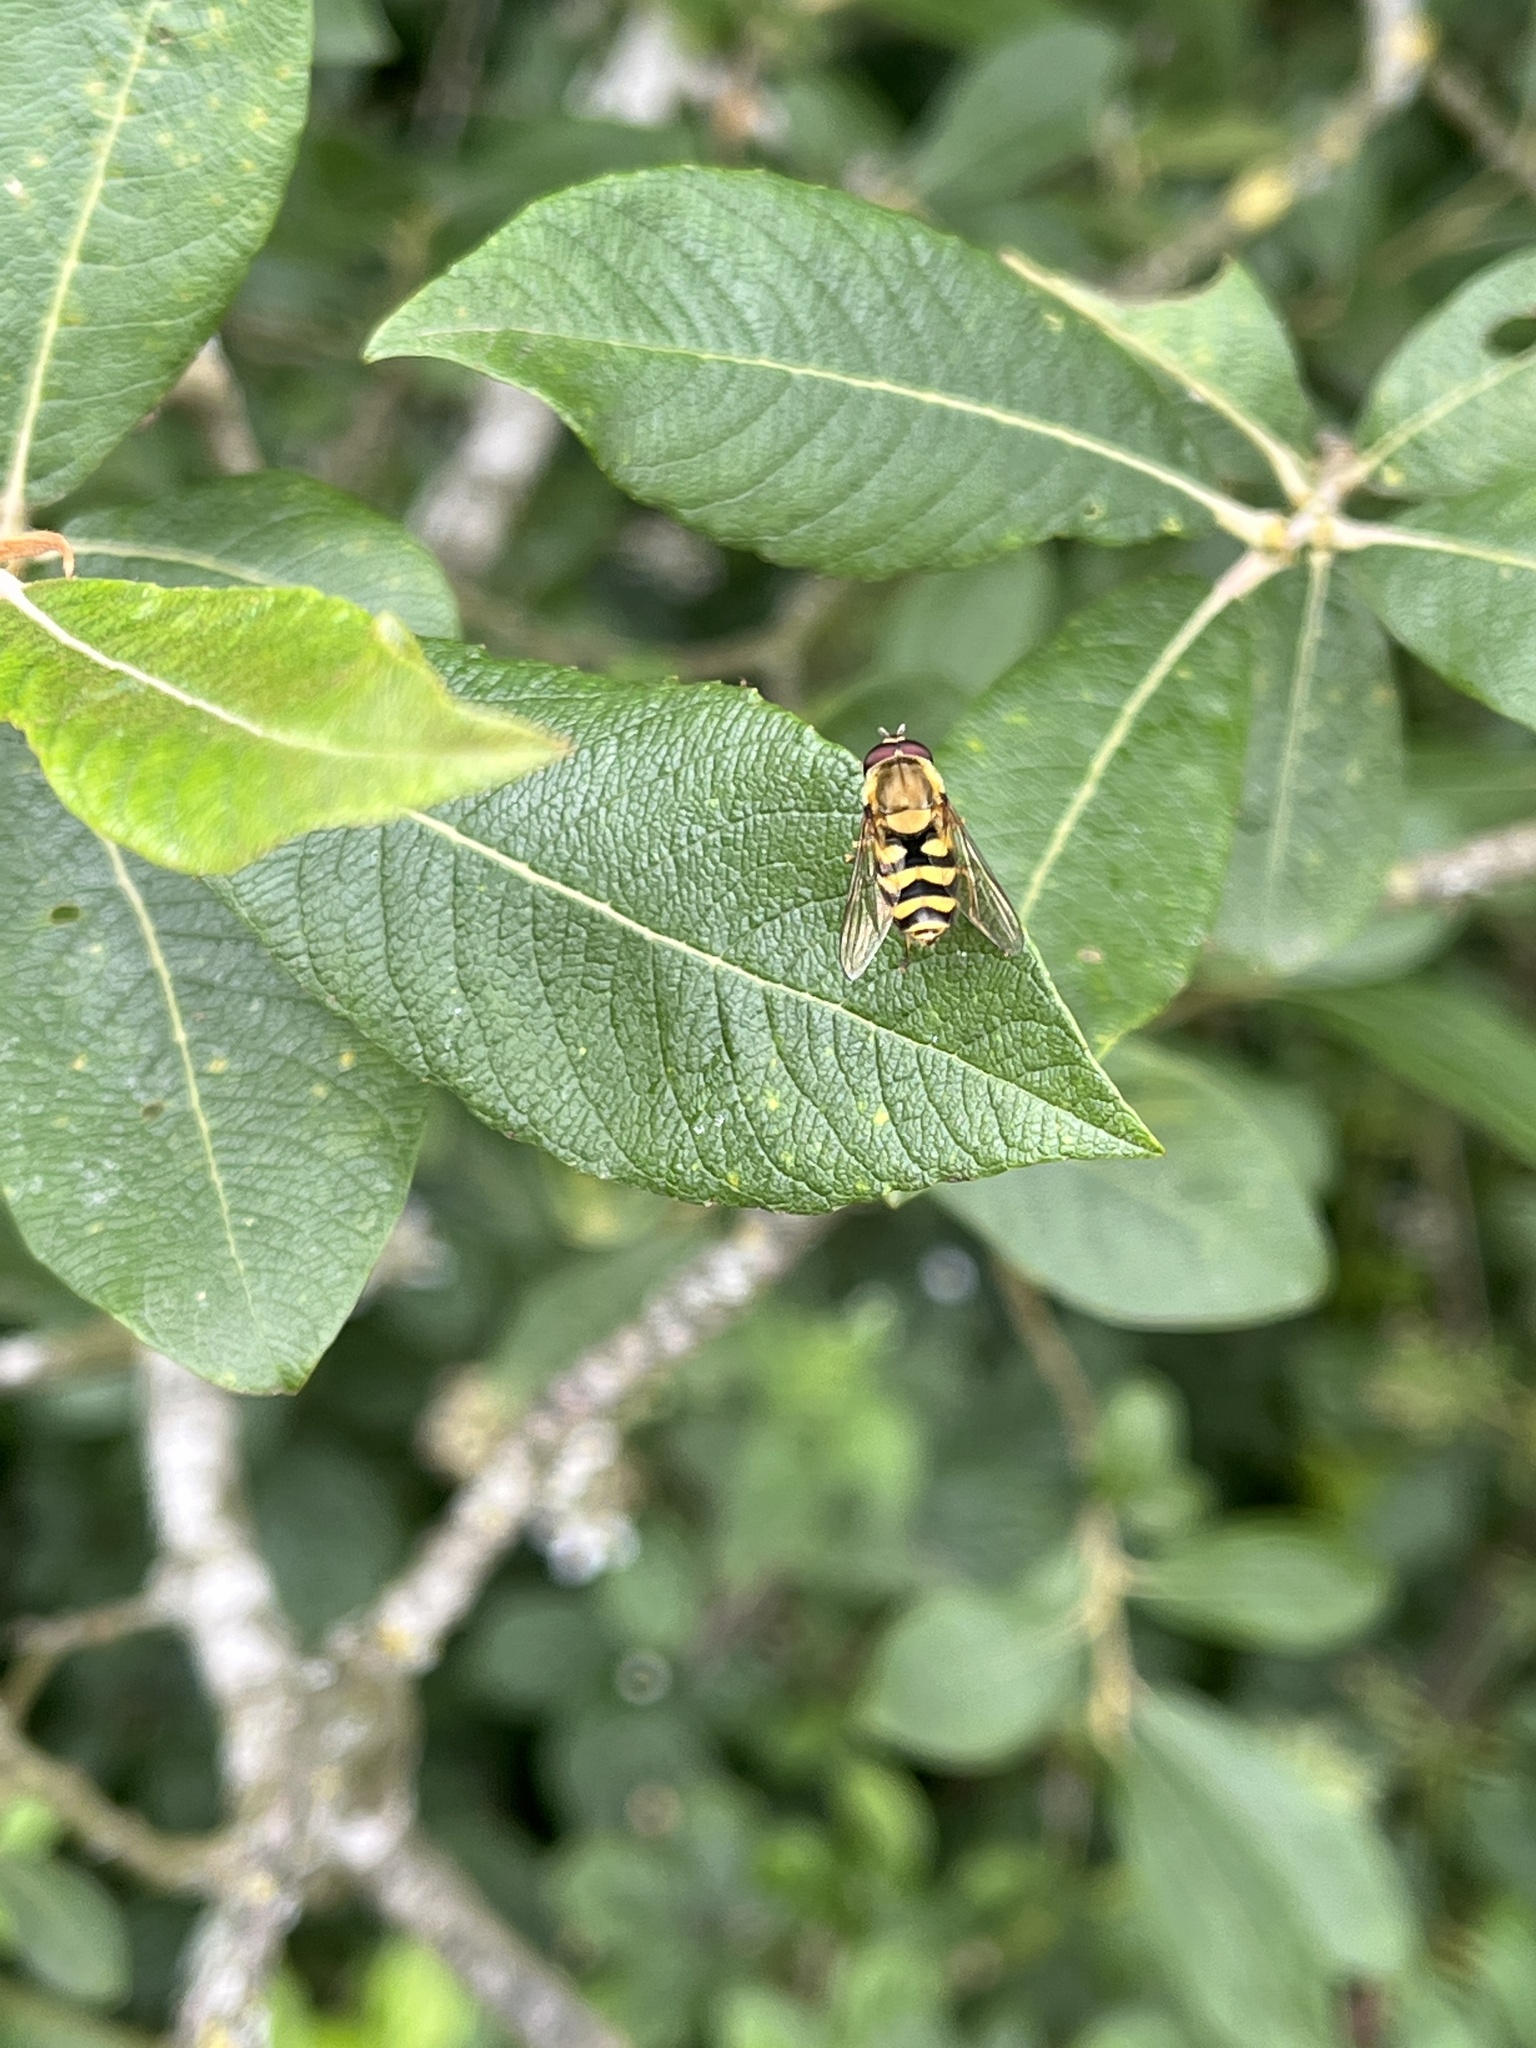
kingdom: Animalia
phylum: Arthropoda
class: Insecta
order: Diptera
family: Syrphidae
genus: Syrphus
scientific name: Syrphus
